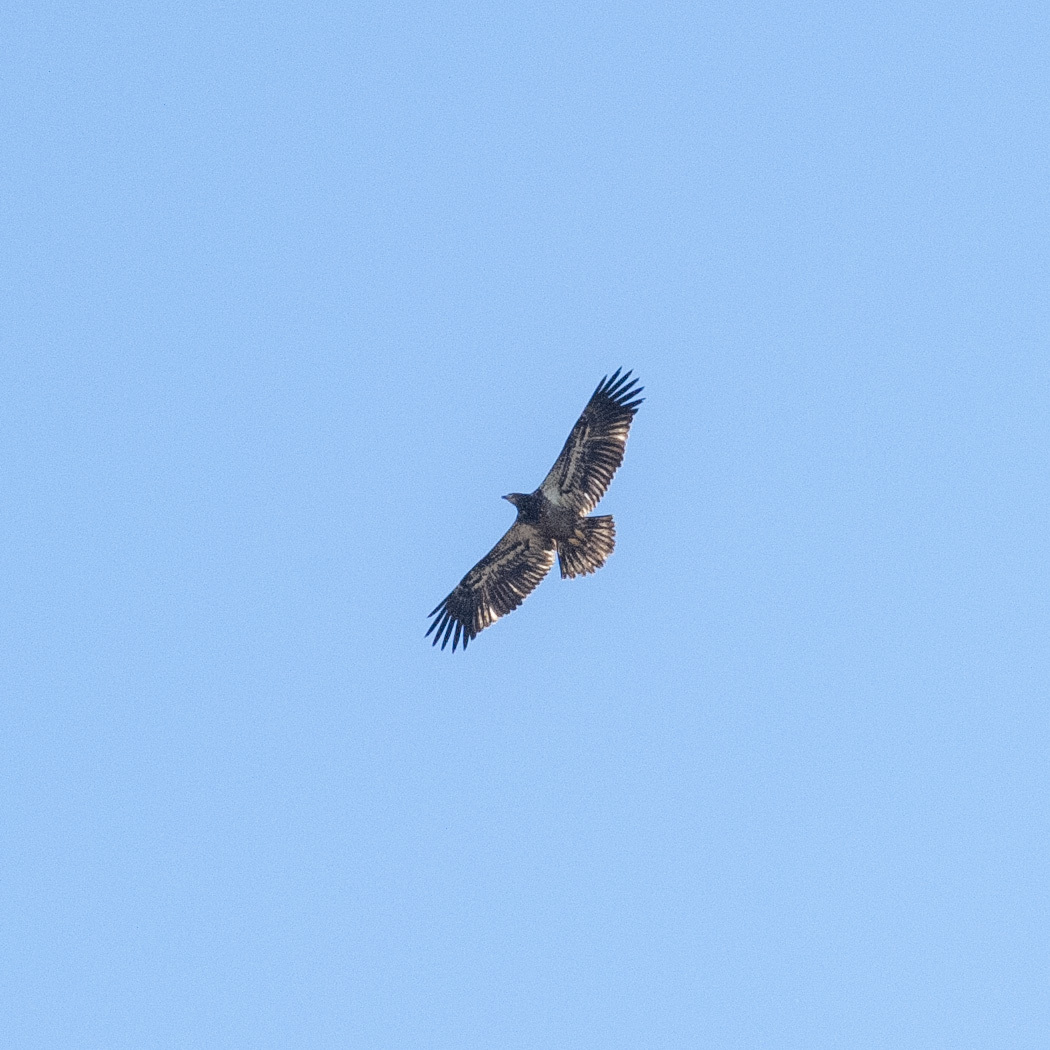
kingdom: Animalia
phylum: Chordata
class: Aves
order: Accipitriformes
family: Accipitridae
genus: Haliaeetus
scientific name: Haliaeetus leucocephalus
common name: Bald eagle
